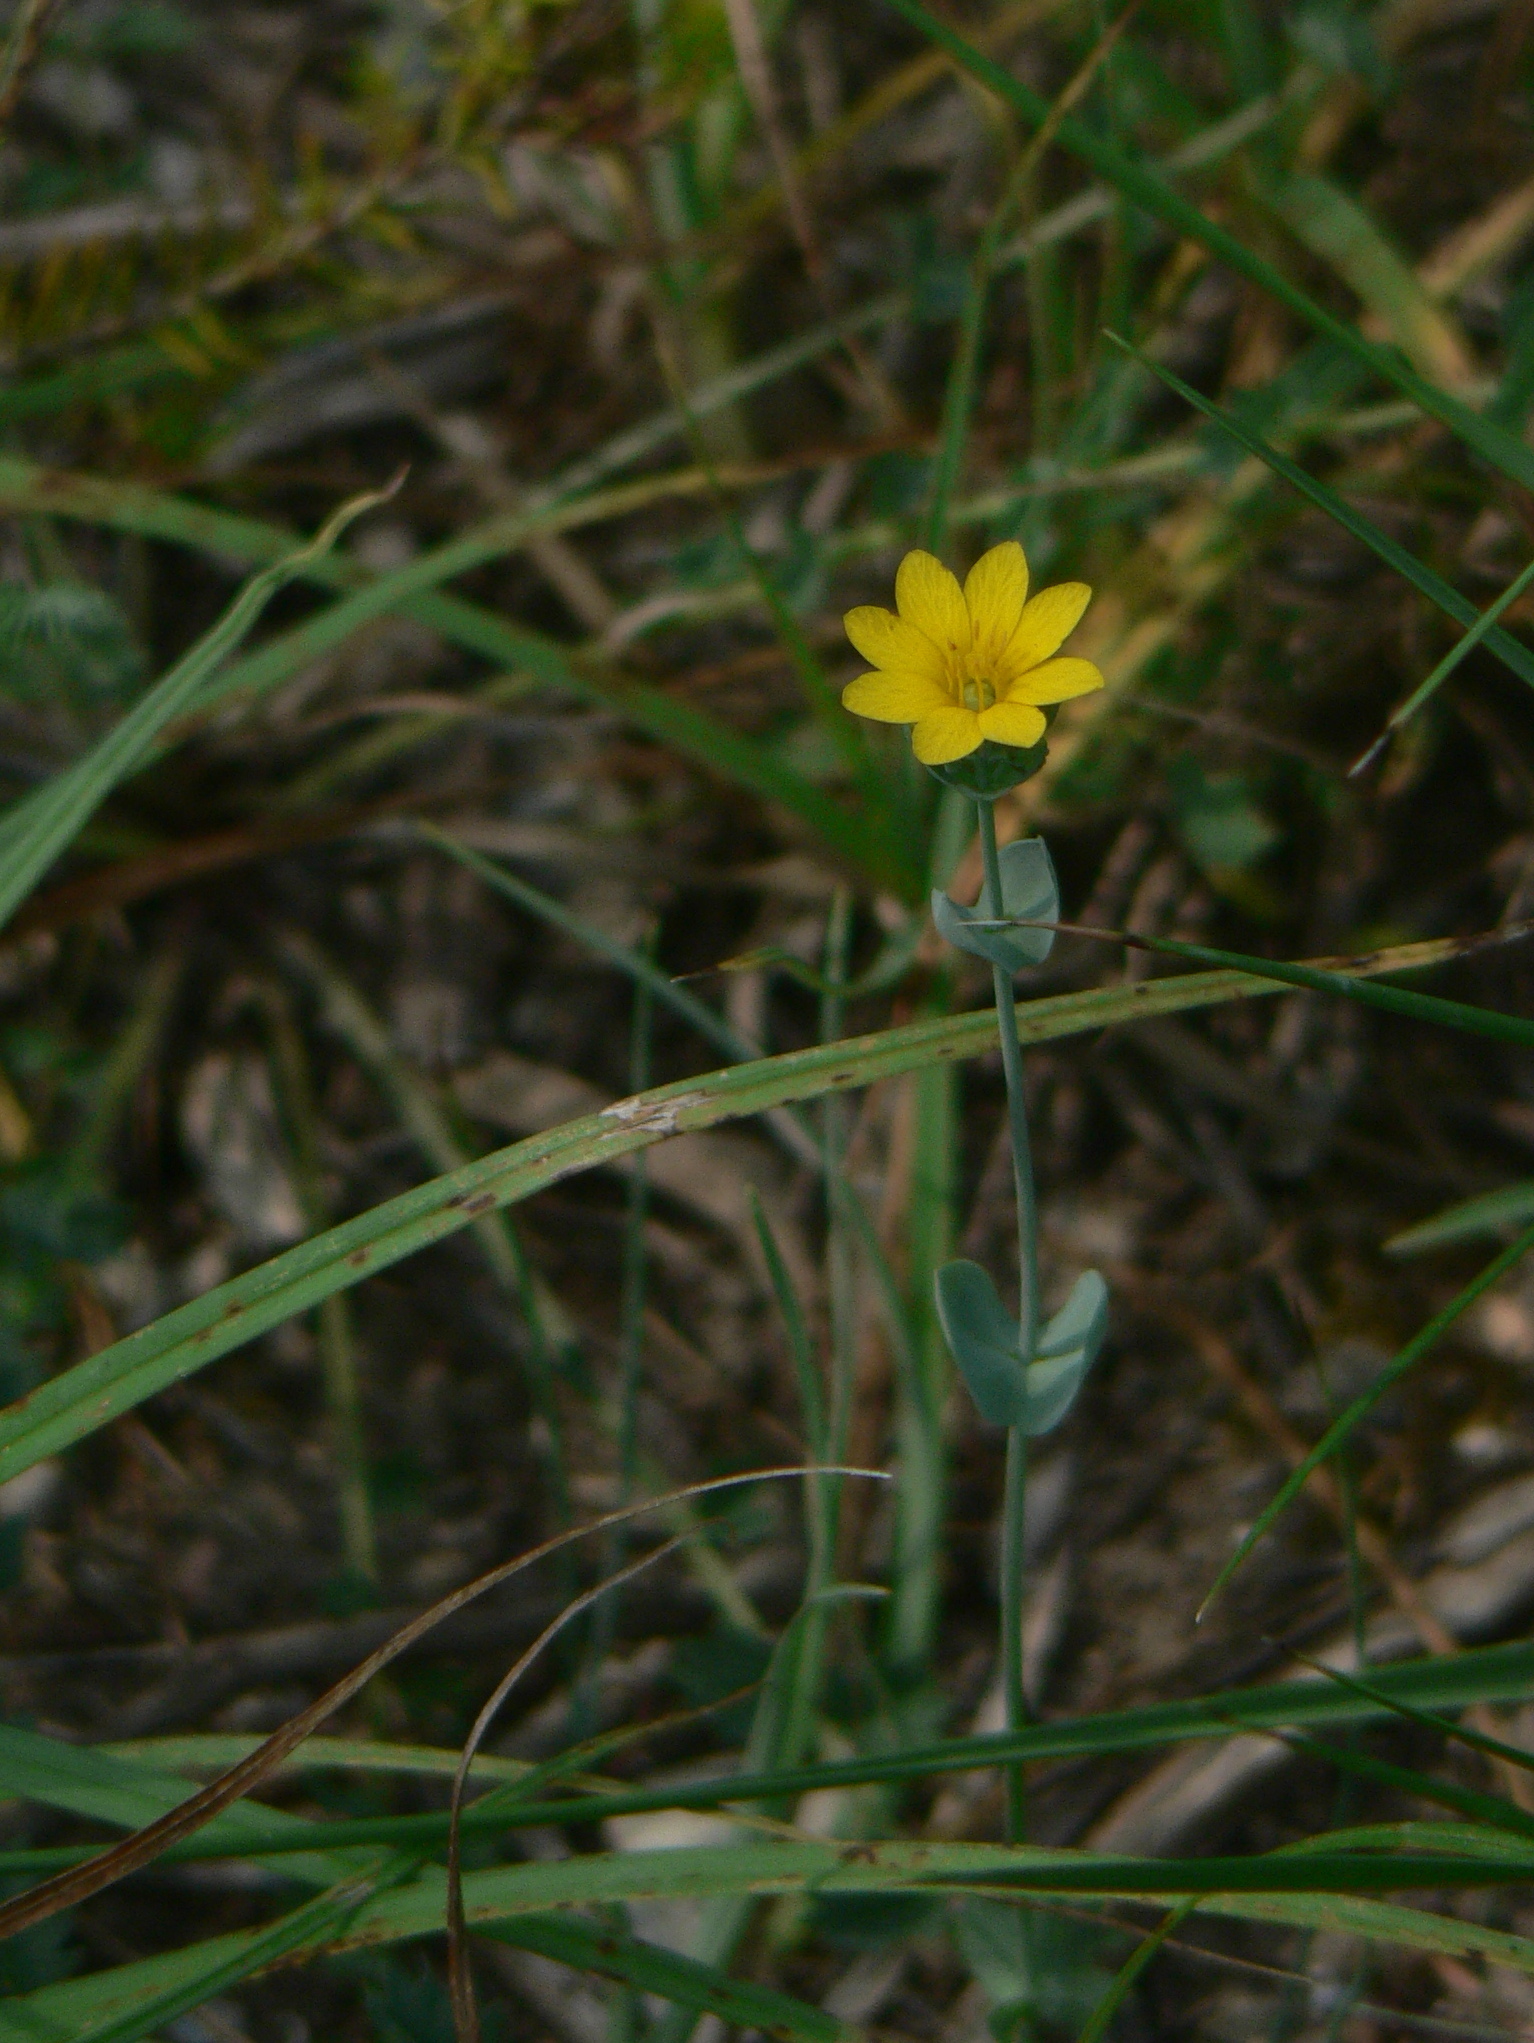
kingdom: Plantae
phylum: Tracheophyta
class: Magnoliopsida
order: Gentianales
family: Gentianaceae
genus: Blackstonia
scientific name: Blackstonia perfoliata
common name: Yellow-wort
